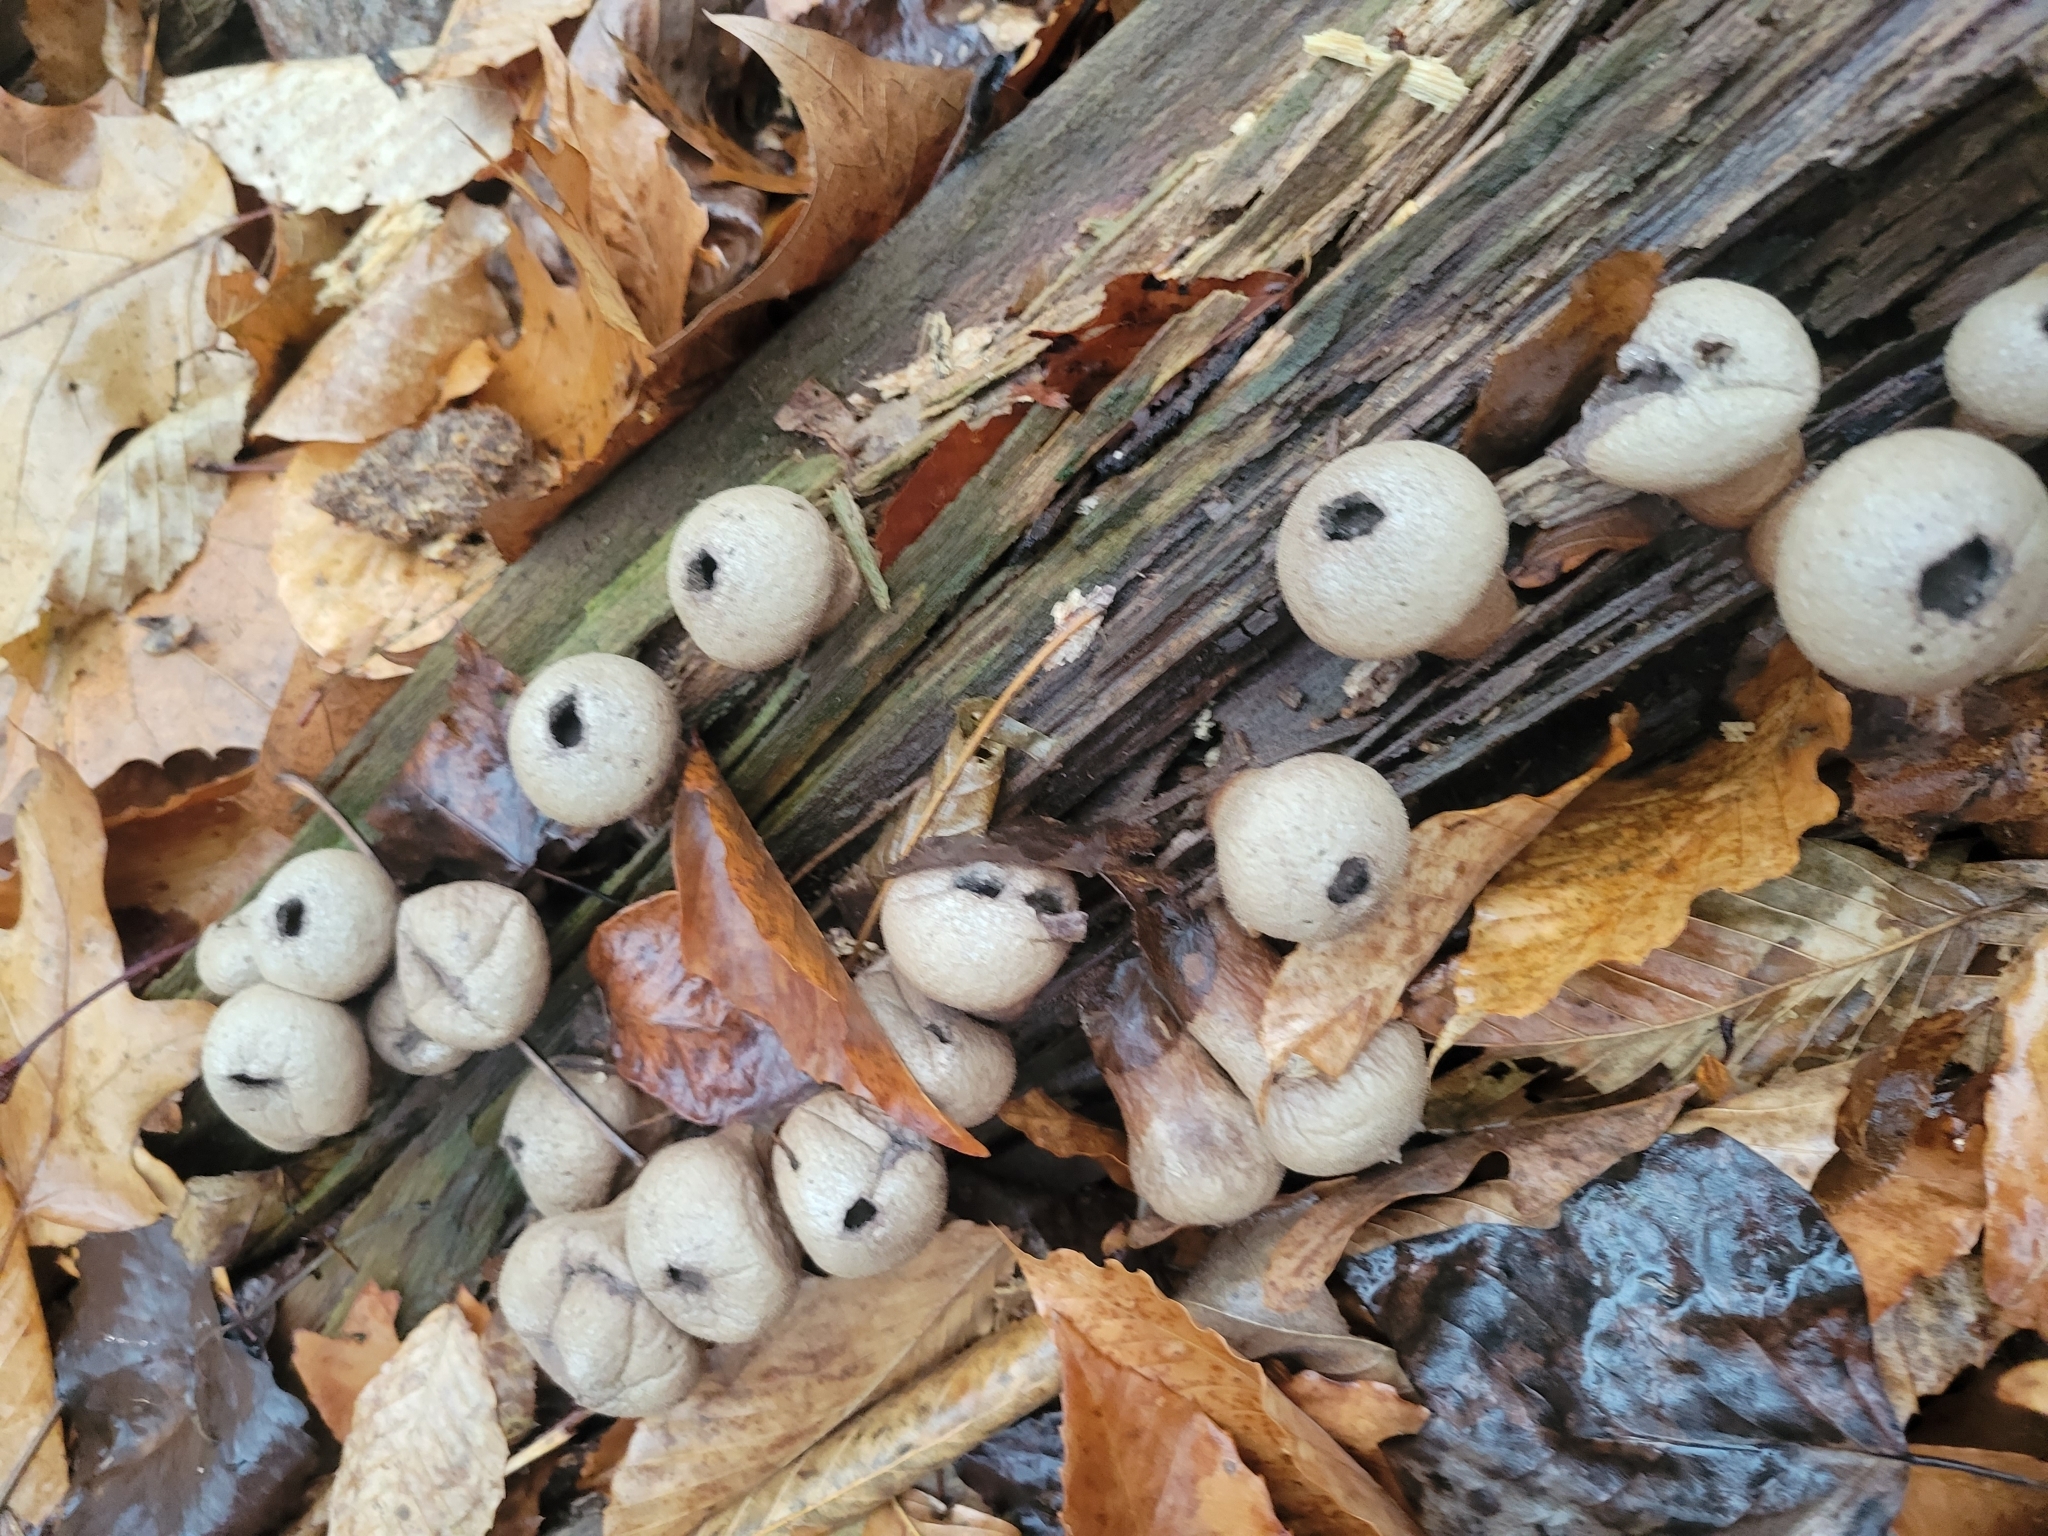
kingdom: Fungi
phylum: Basidiomycota
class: Agaricomycetes
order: Agaricales
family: Lycoperdaceae
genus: Apioperdon
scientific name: Apioperdon pyriforme
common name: Pear-shaped puffball
